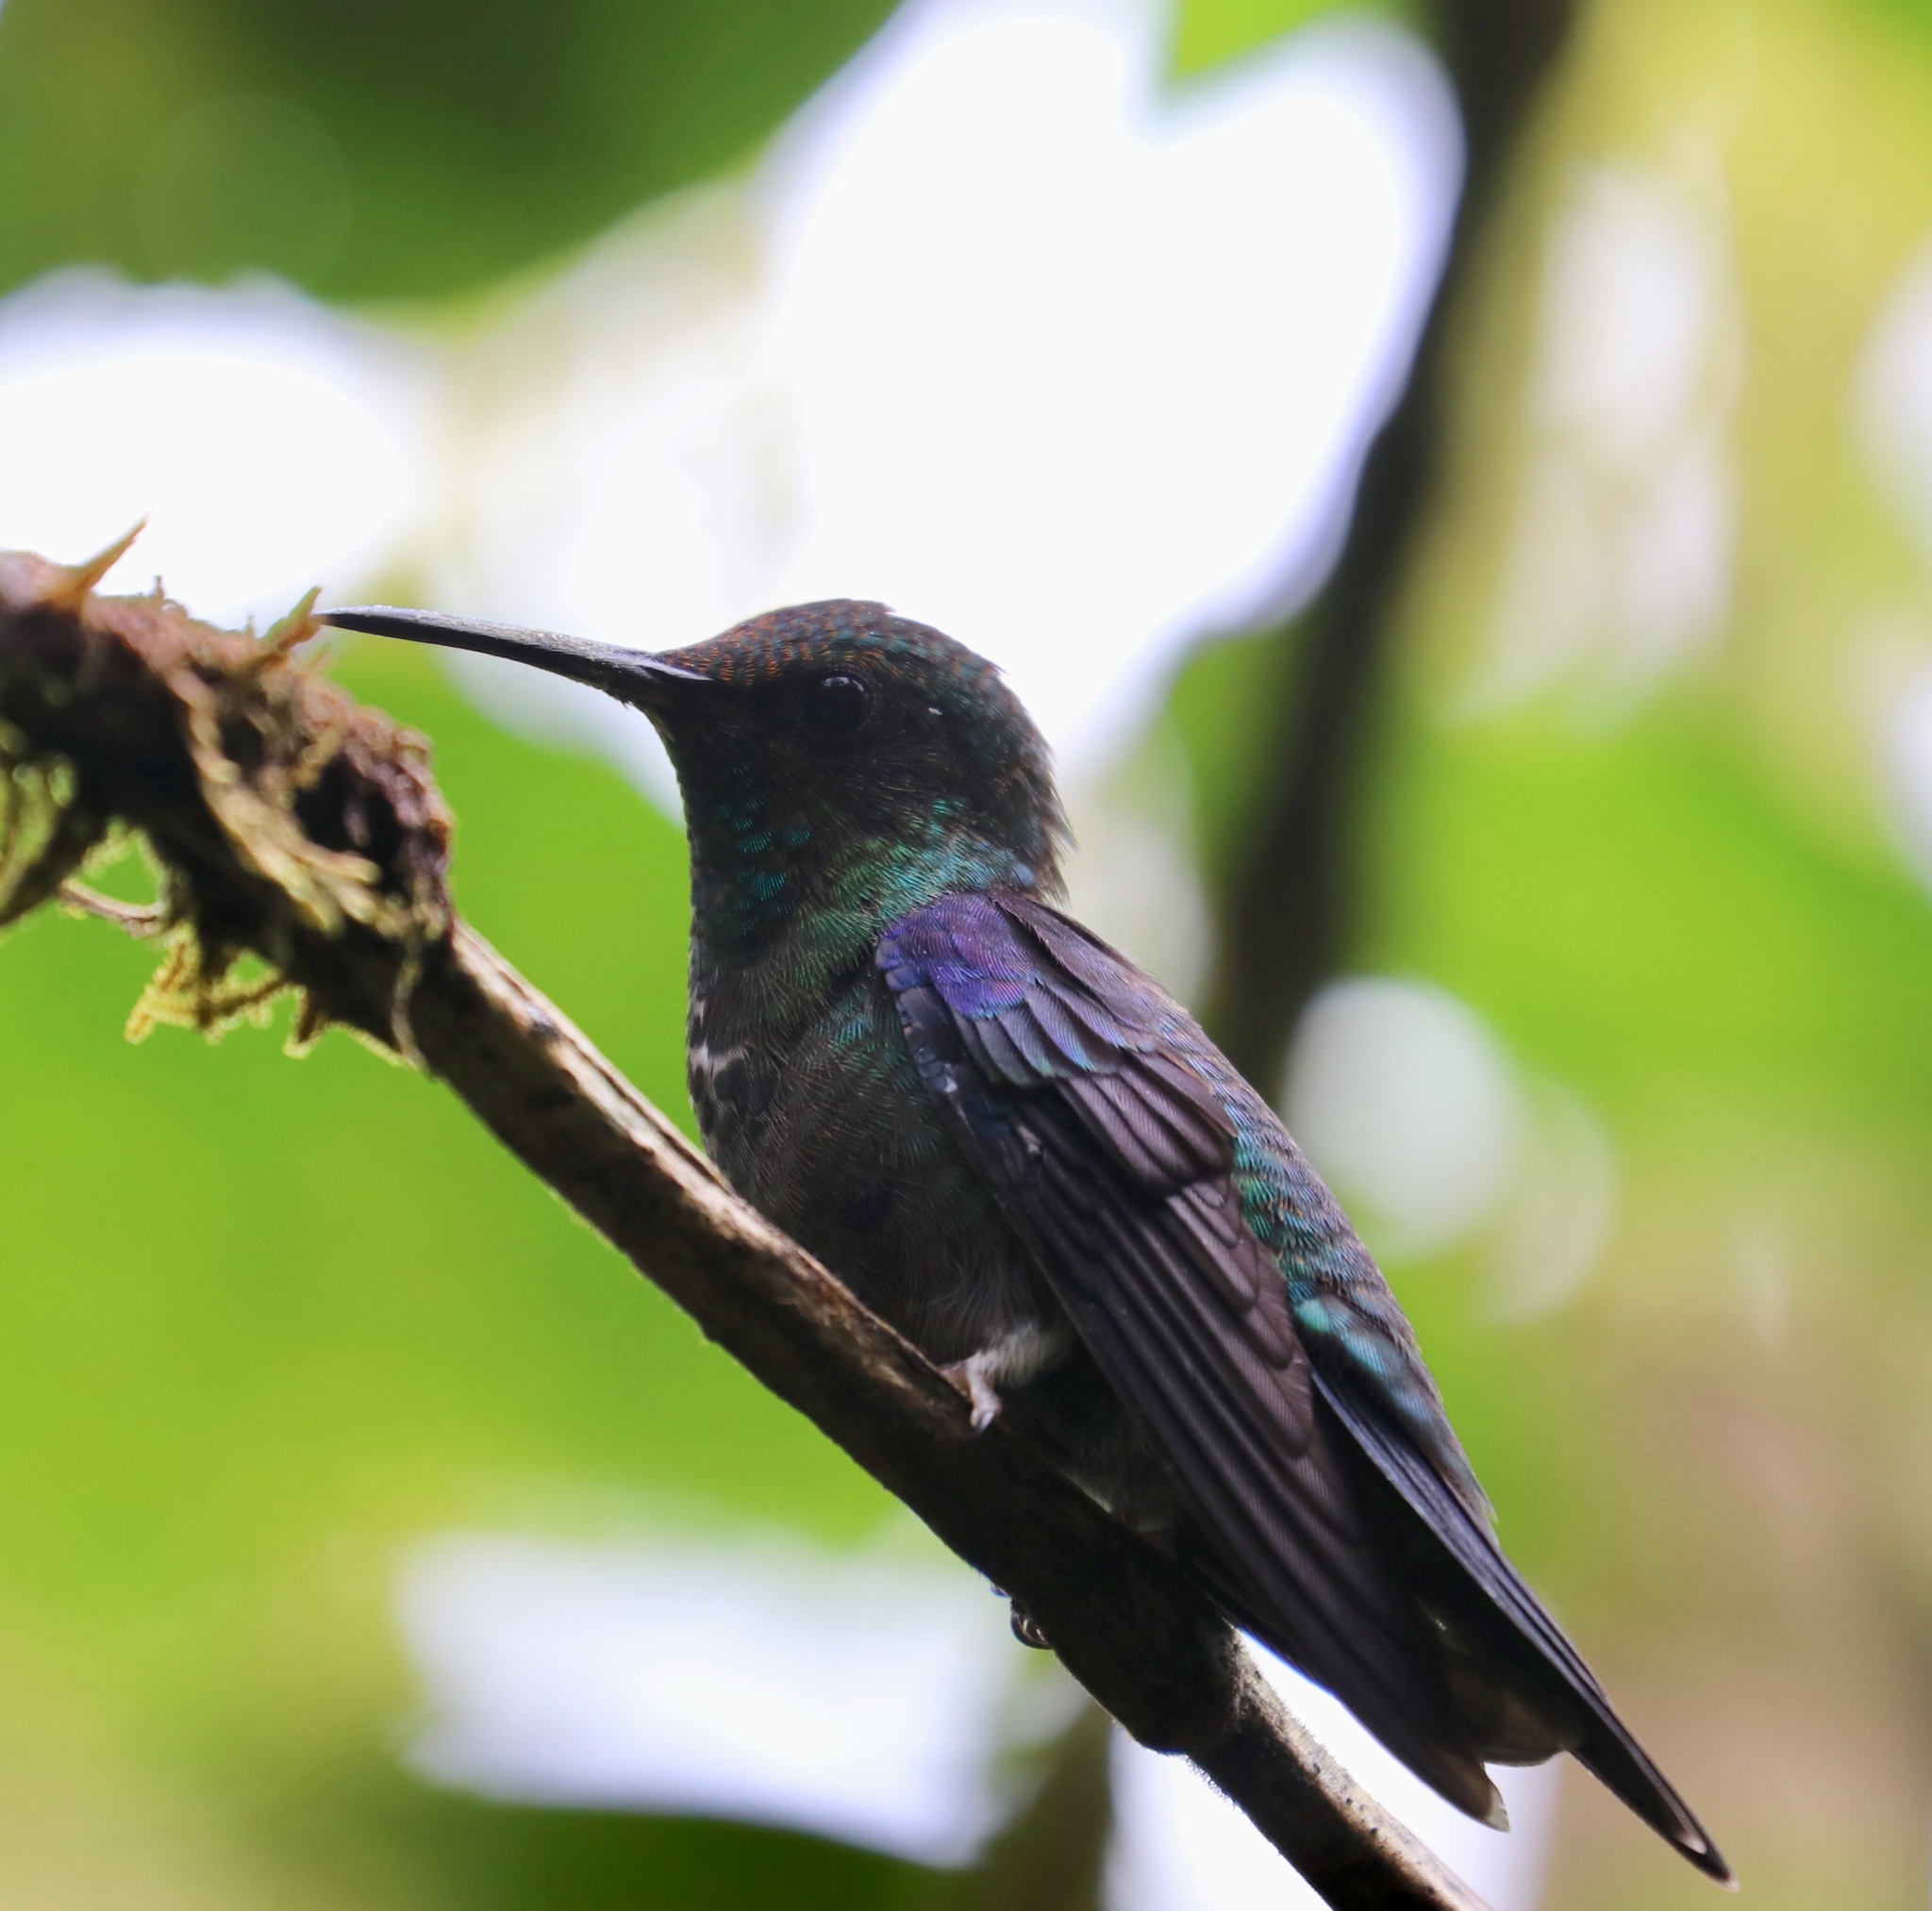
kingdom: Animalia
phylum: Chordata
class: Aves
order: Apodiformes
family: Trochilidae
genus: Thalurania
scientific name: Thalurania colombica
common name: Crowned woodnymph
